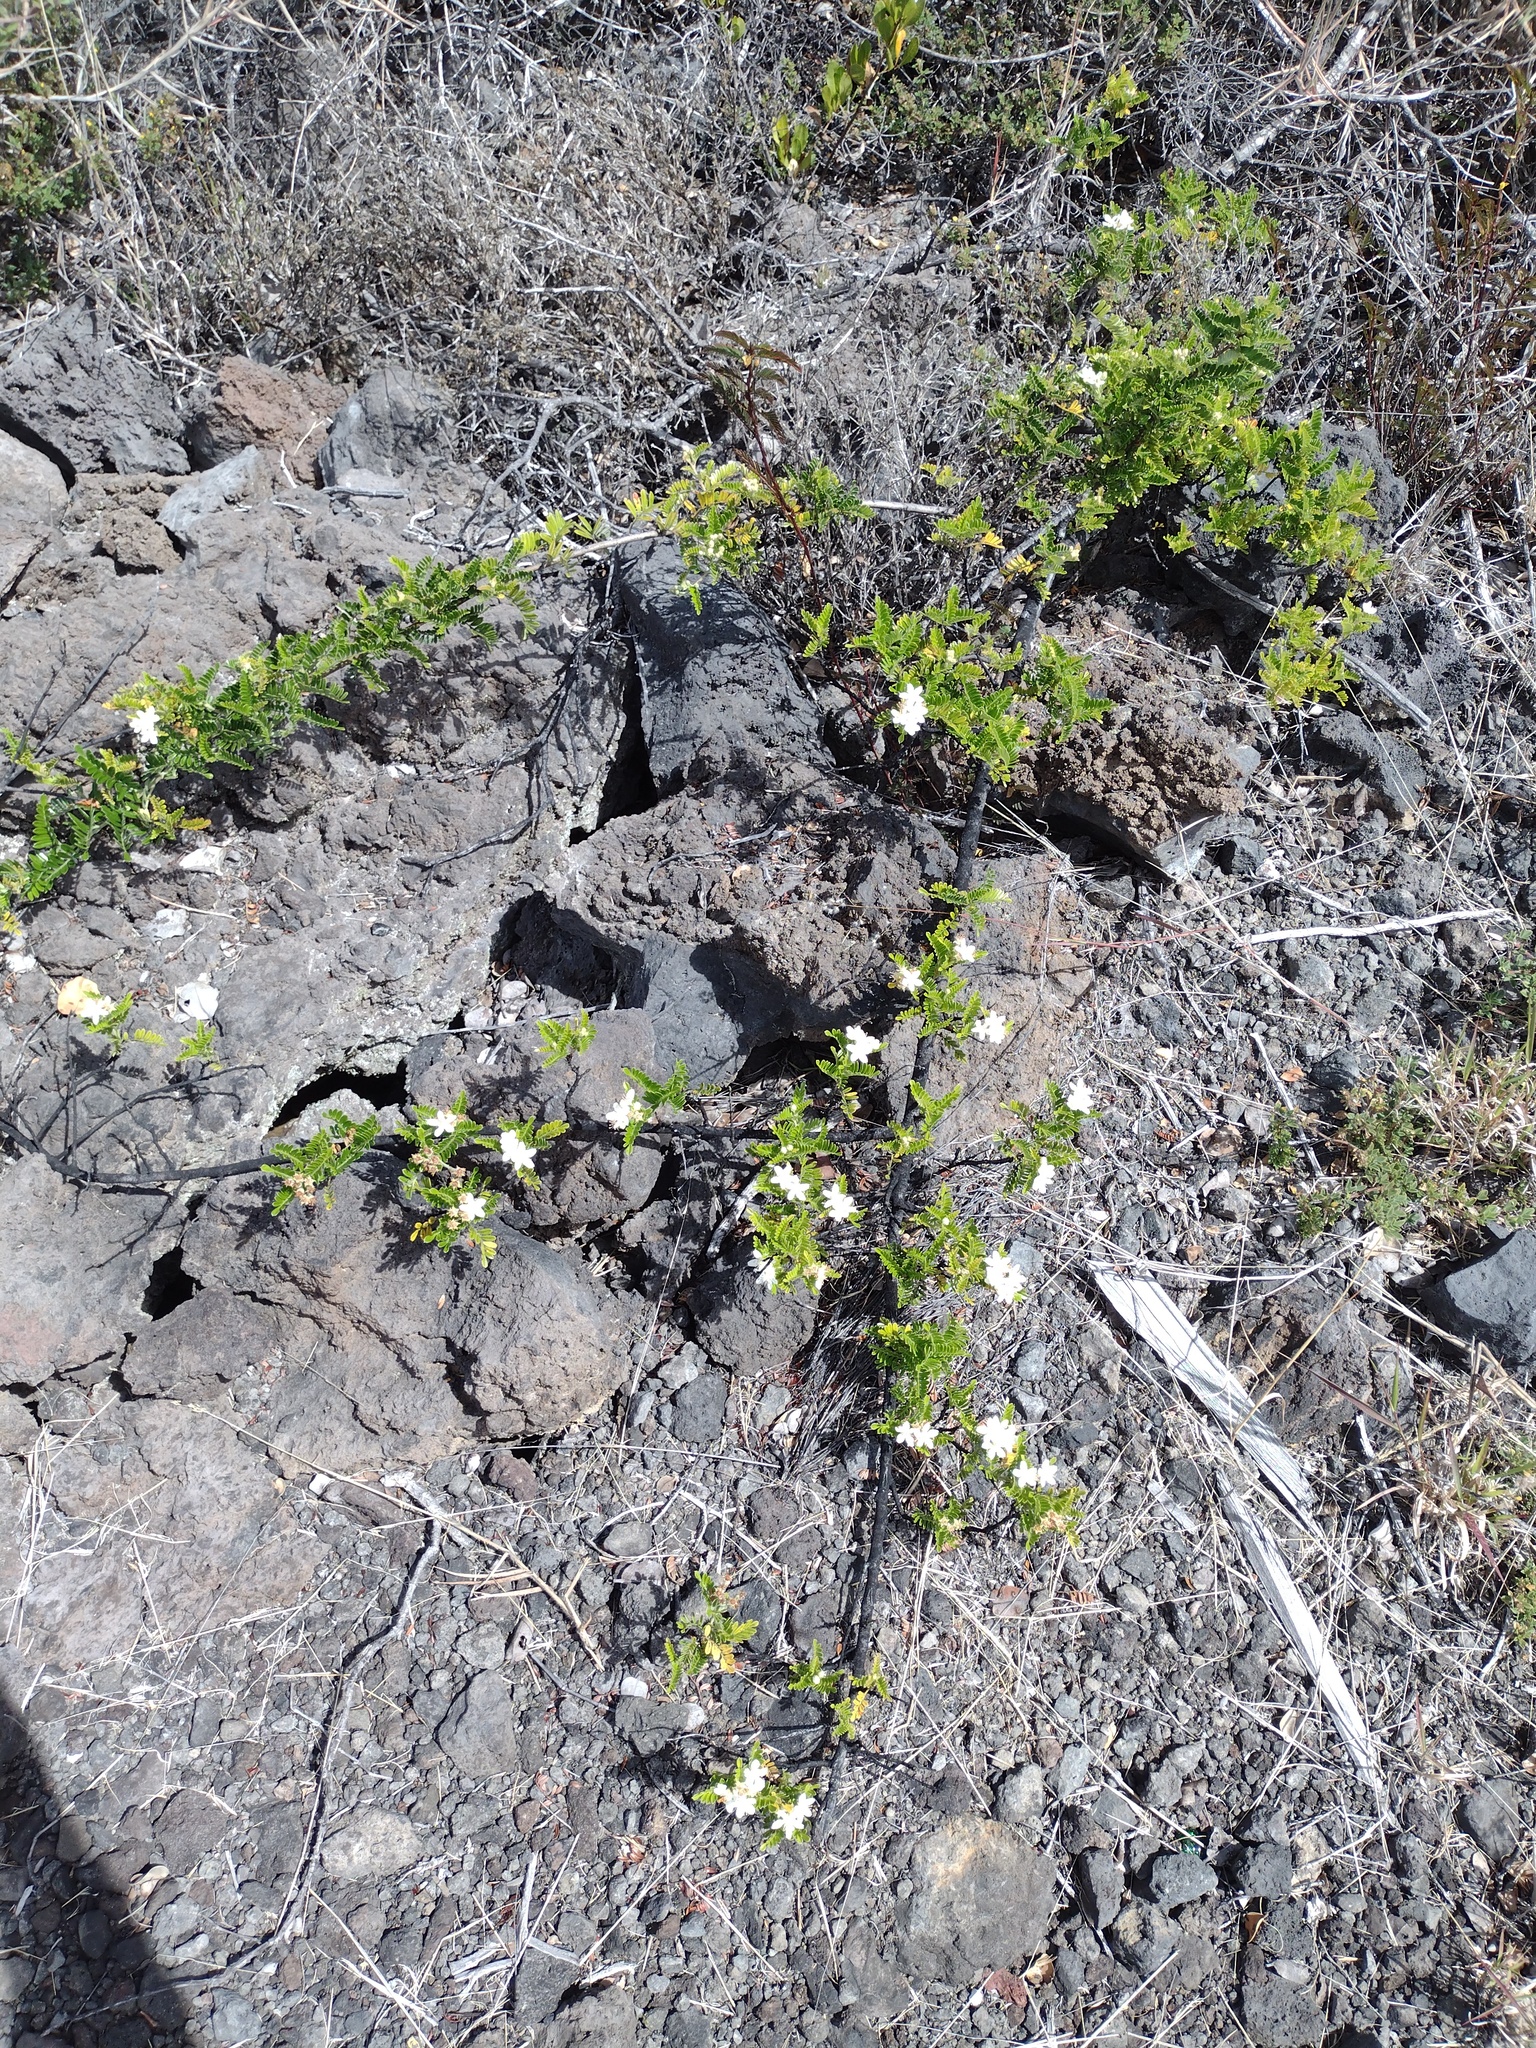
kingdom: Plantae
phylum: Tracheophyta
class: Magnoliopsida
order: Rosales
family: Rosaceae
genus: Osteomeles
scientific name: Osteomeles anthyllidifolia
